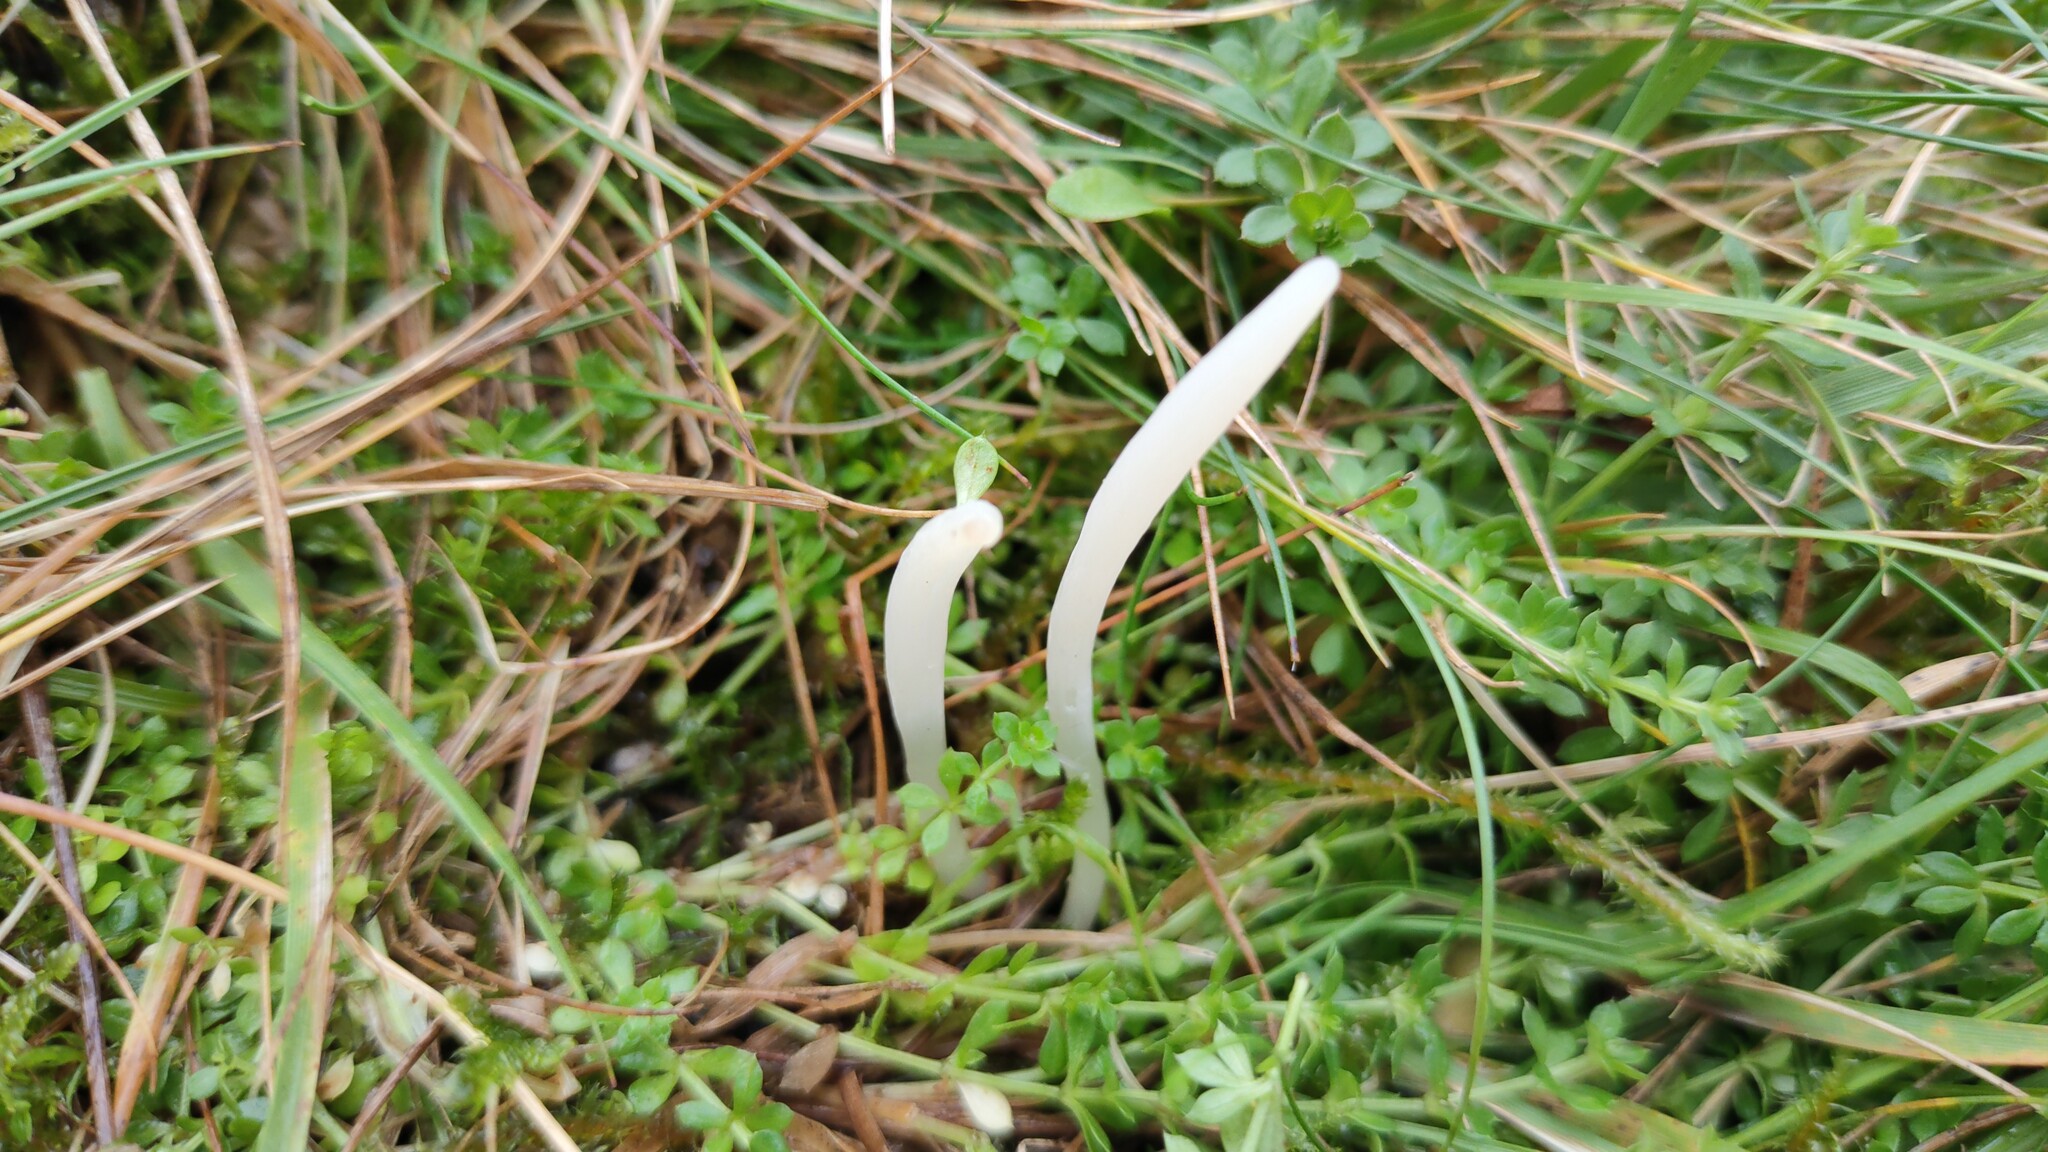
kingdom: Fungi
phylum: Basidiomycota
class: Agaricomycetes
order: Agaricales
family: Clavariaceae
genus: Clavaria
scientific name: Clavaria acuta
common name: Pointed club
